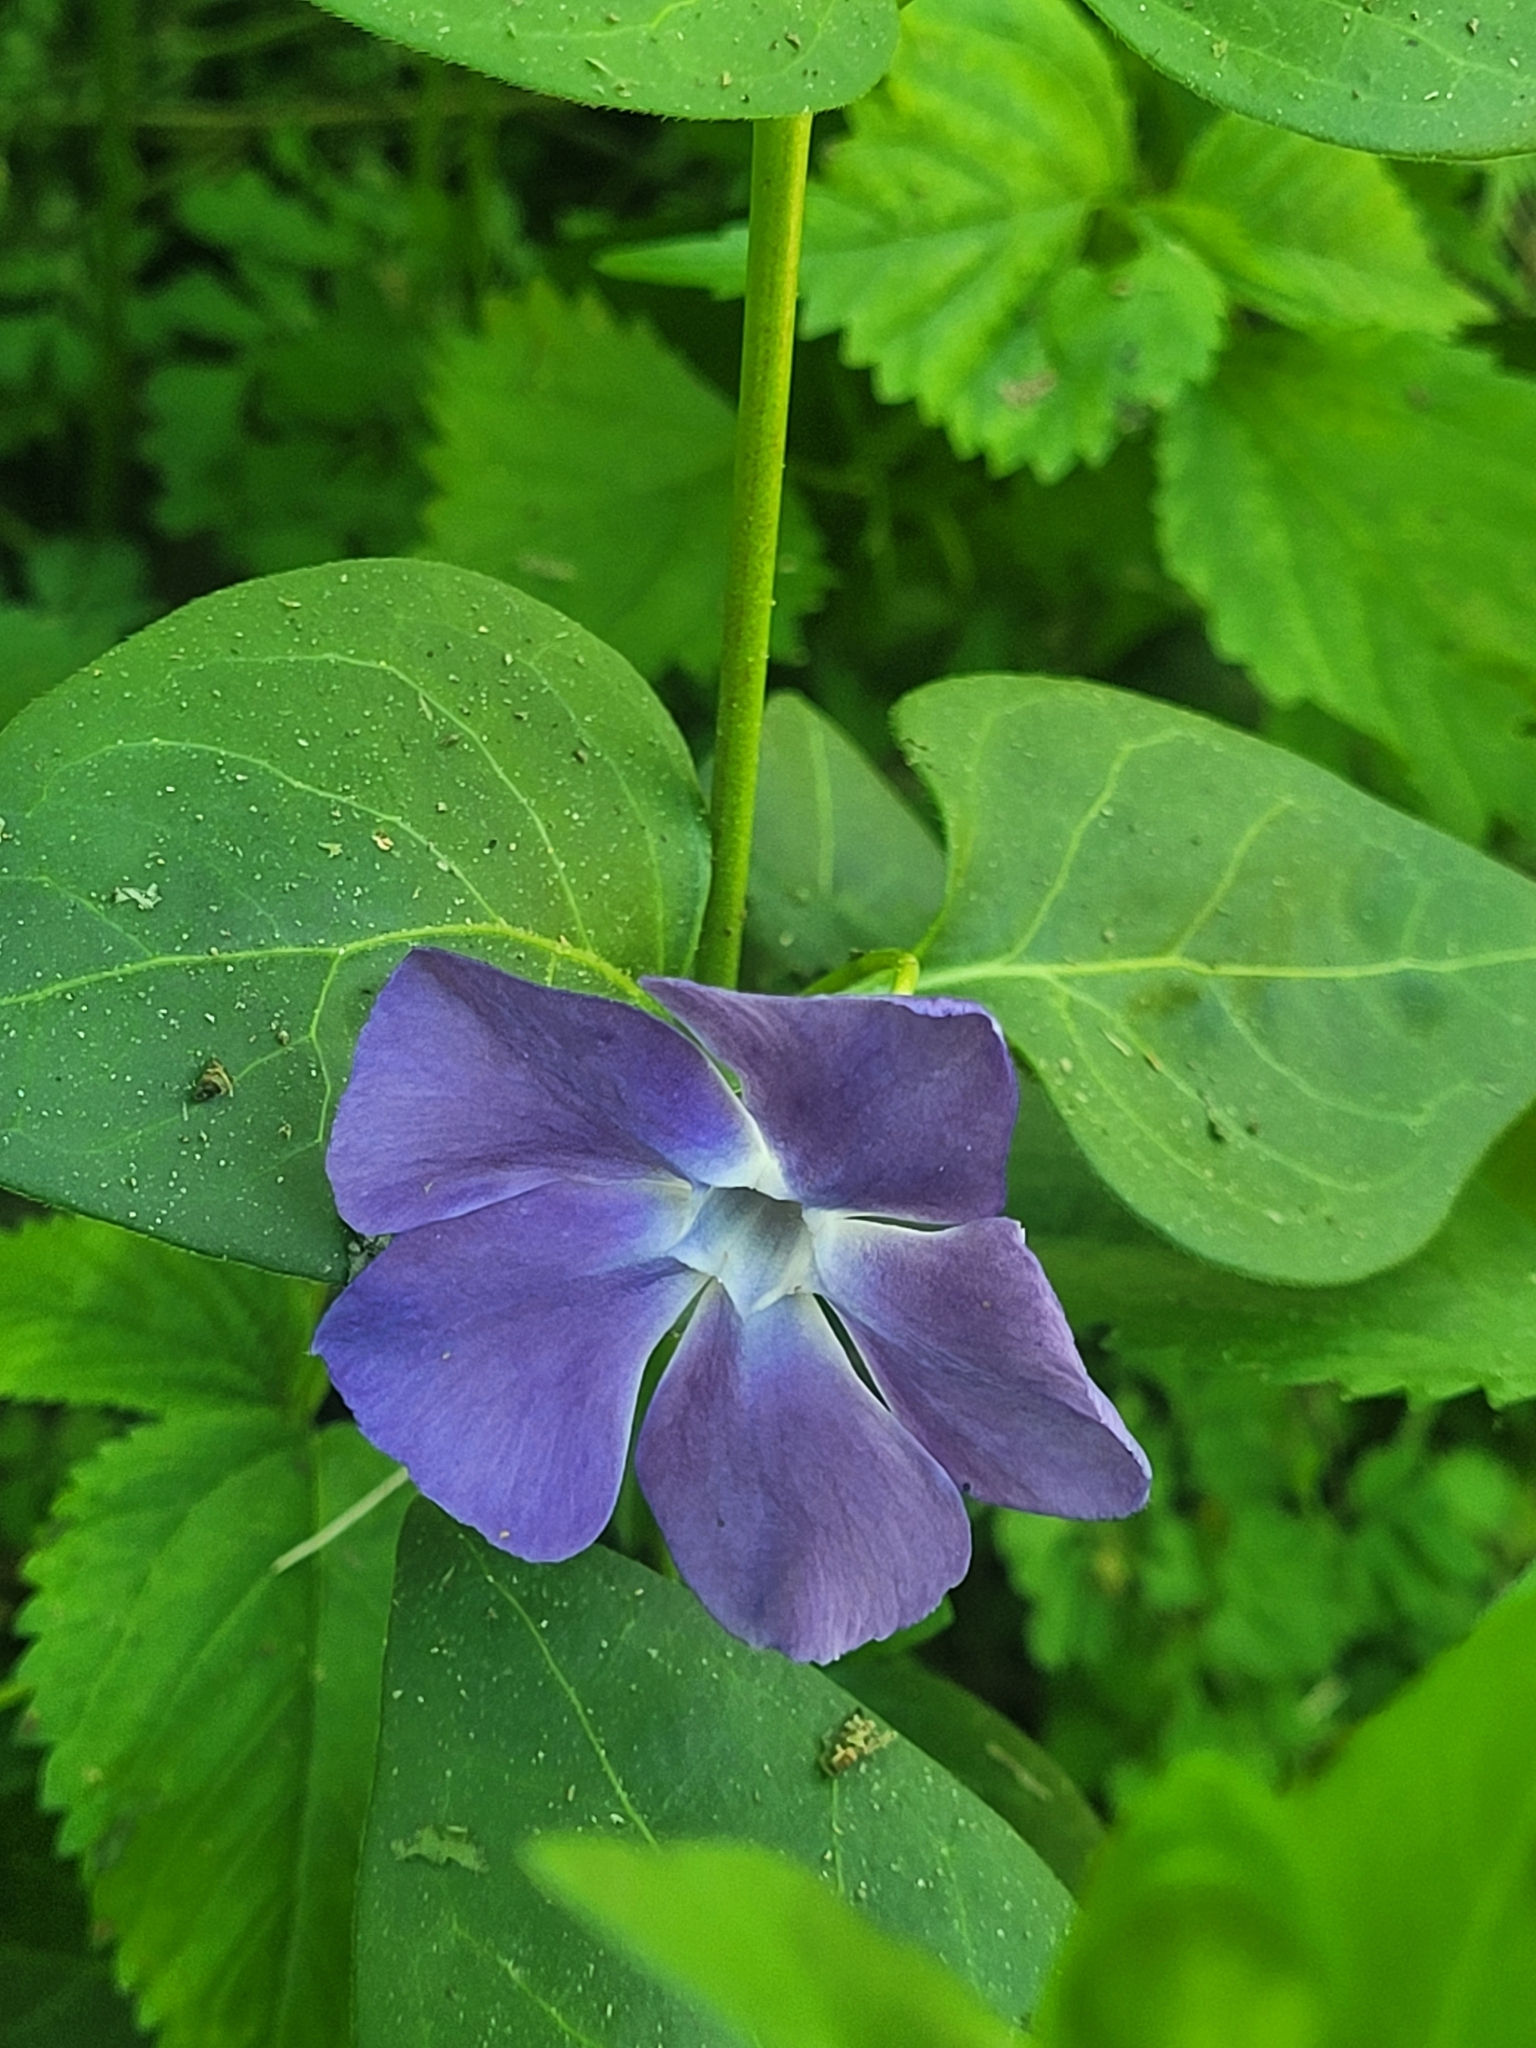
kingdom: Plantae
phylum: Tracheophyta
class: Magnoliopsida
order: Gentianales
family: Apocynaceae
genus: Vinca
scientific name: Vinca major
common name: Greater periwinkle
